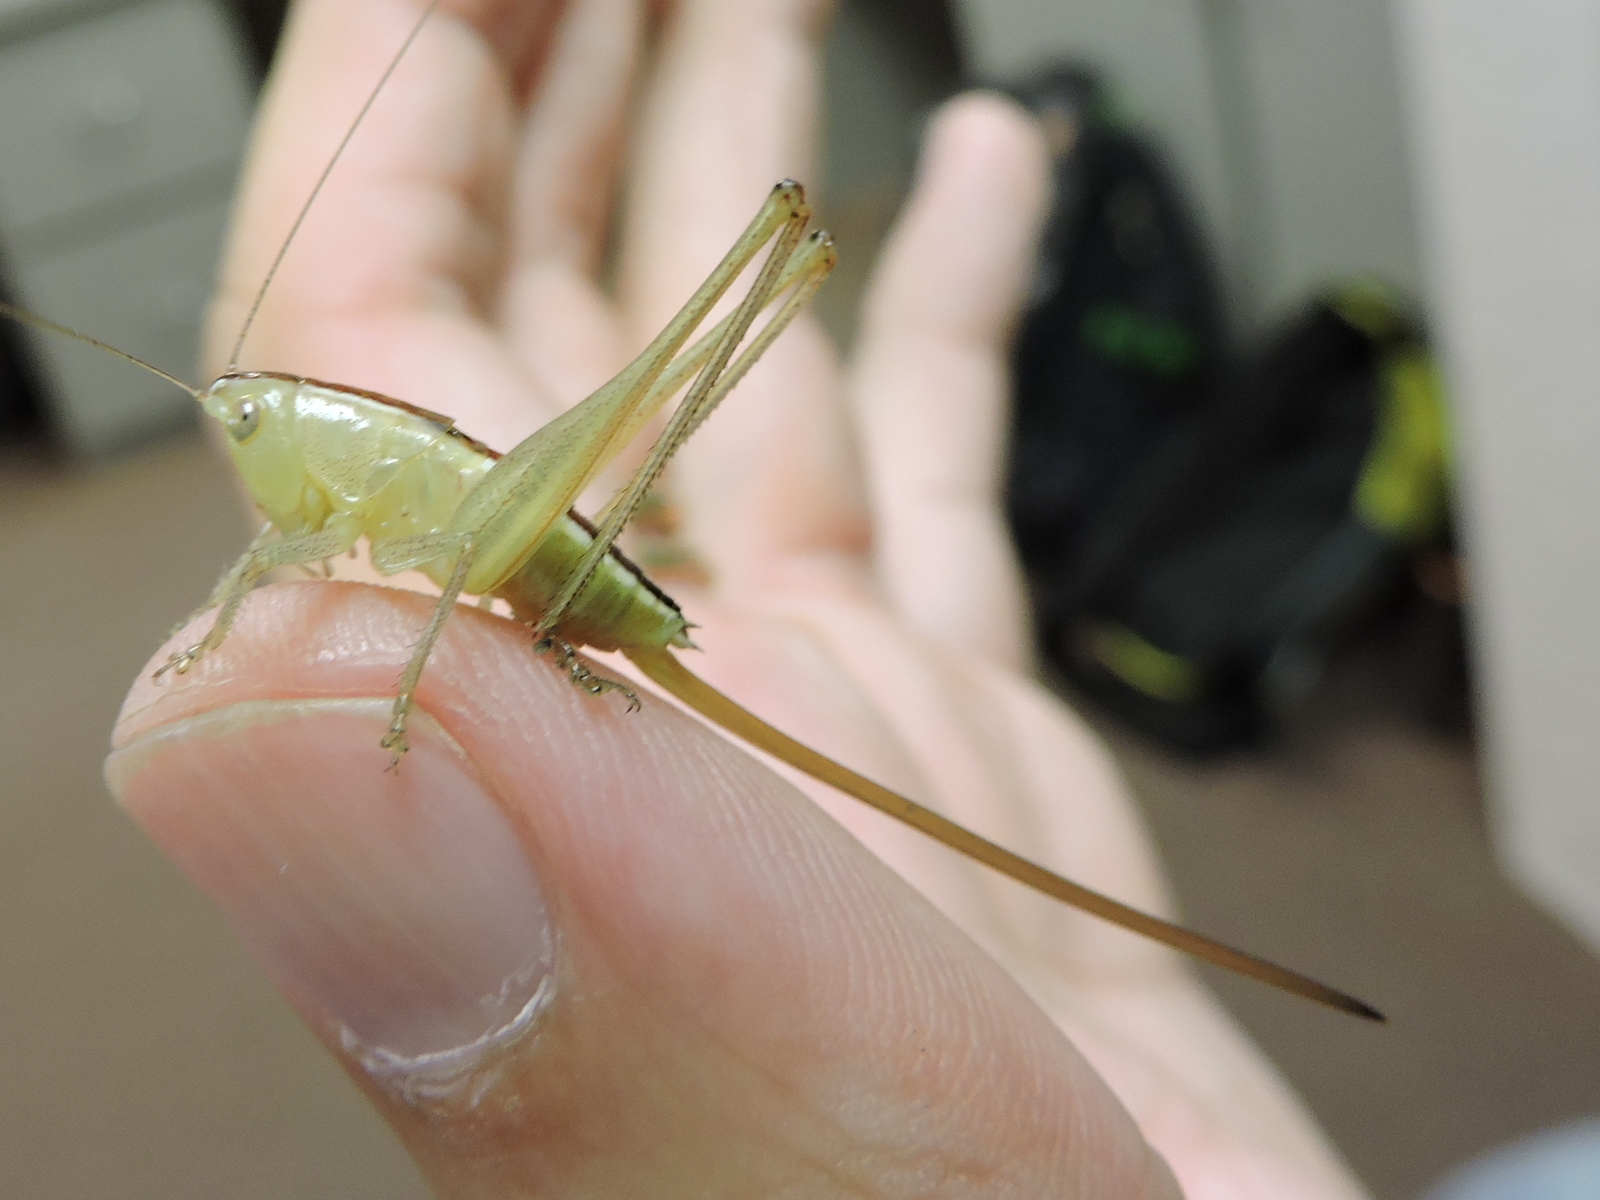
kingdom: Animalia
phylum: Arthropoda
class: Insecta
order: Orthoptera
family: Tettigoniidae
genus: Conocephalus
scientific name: Conocephalus strictus
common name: Straight-lanced katydid
